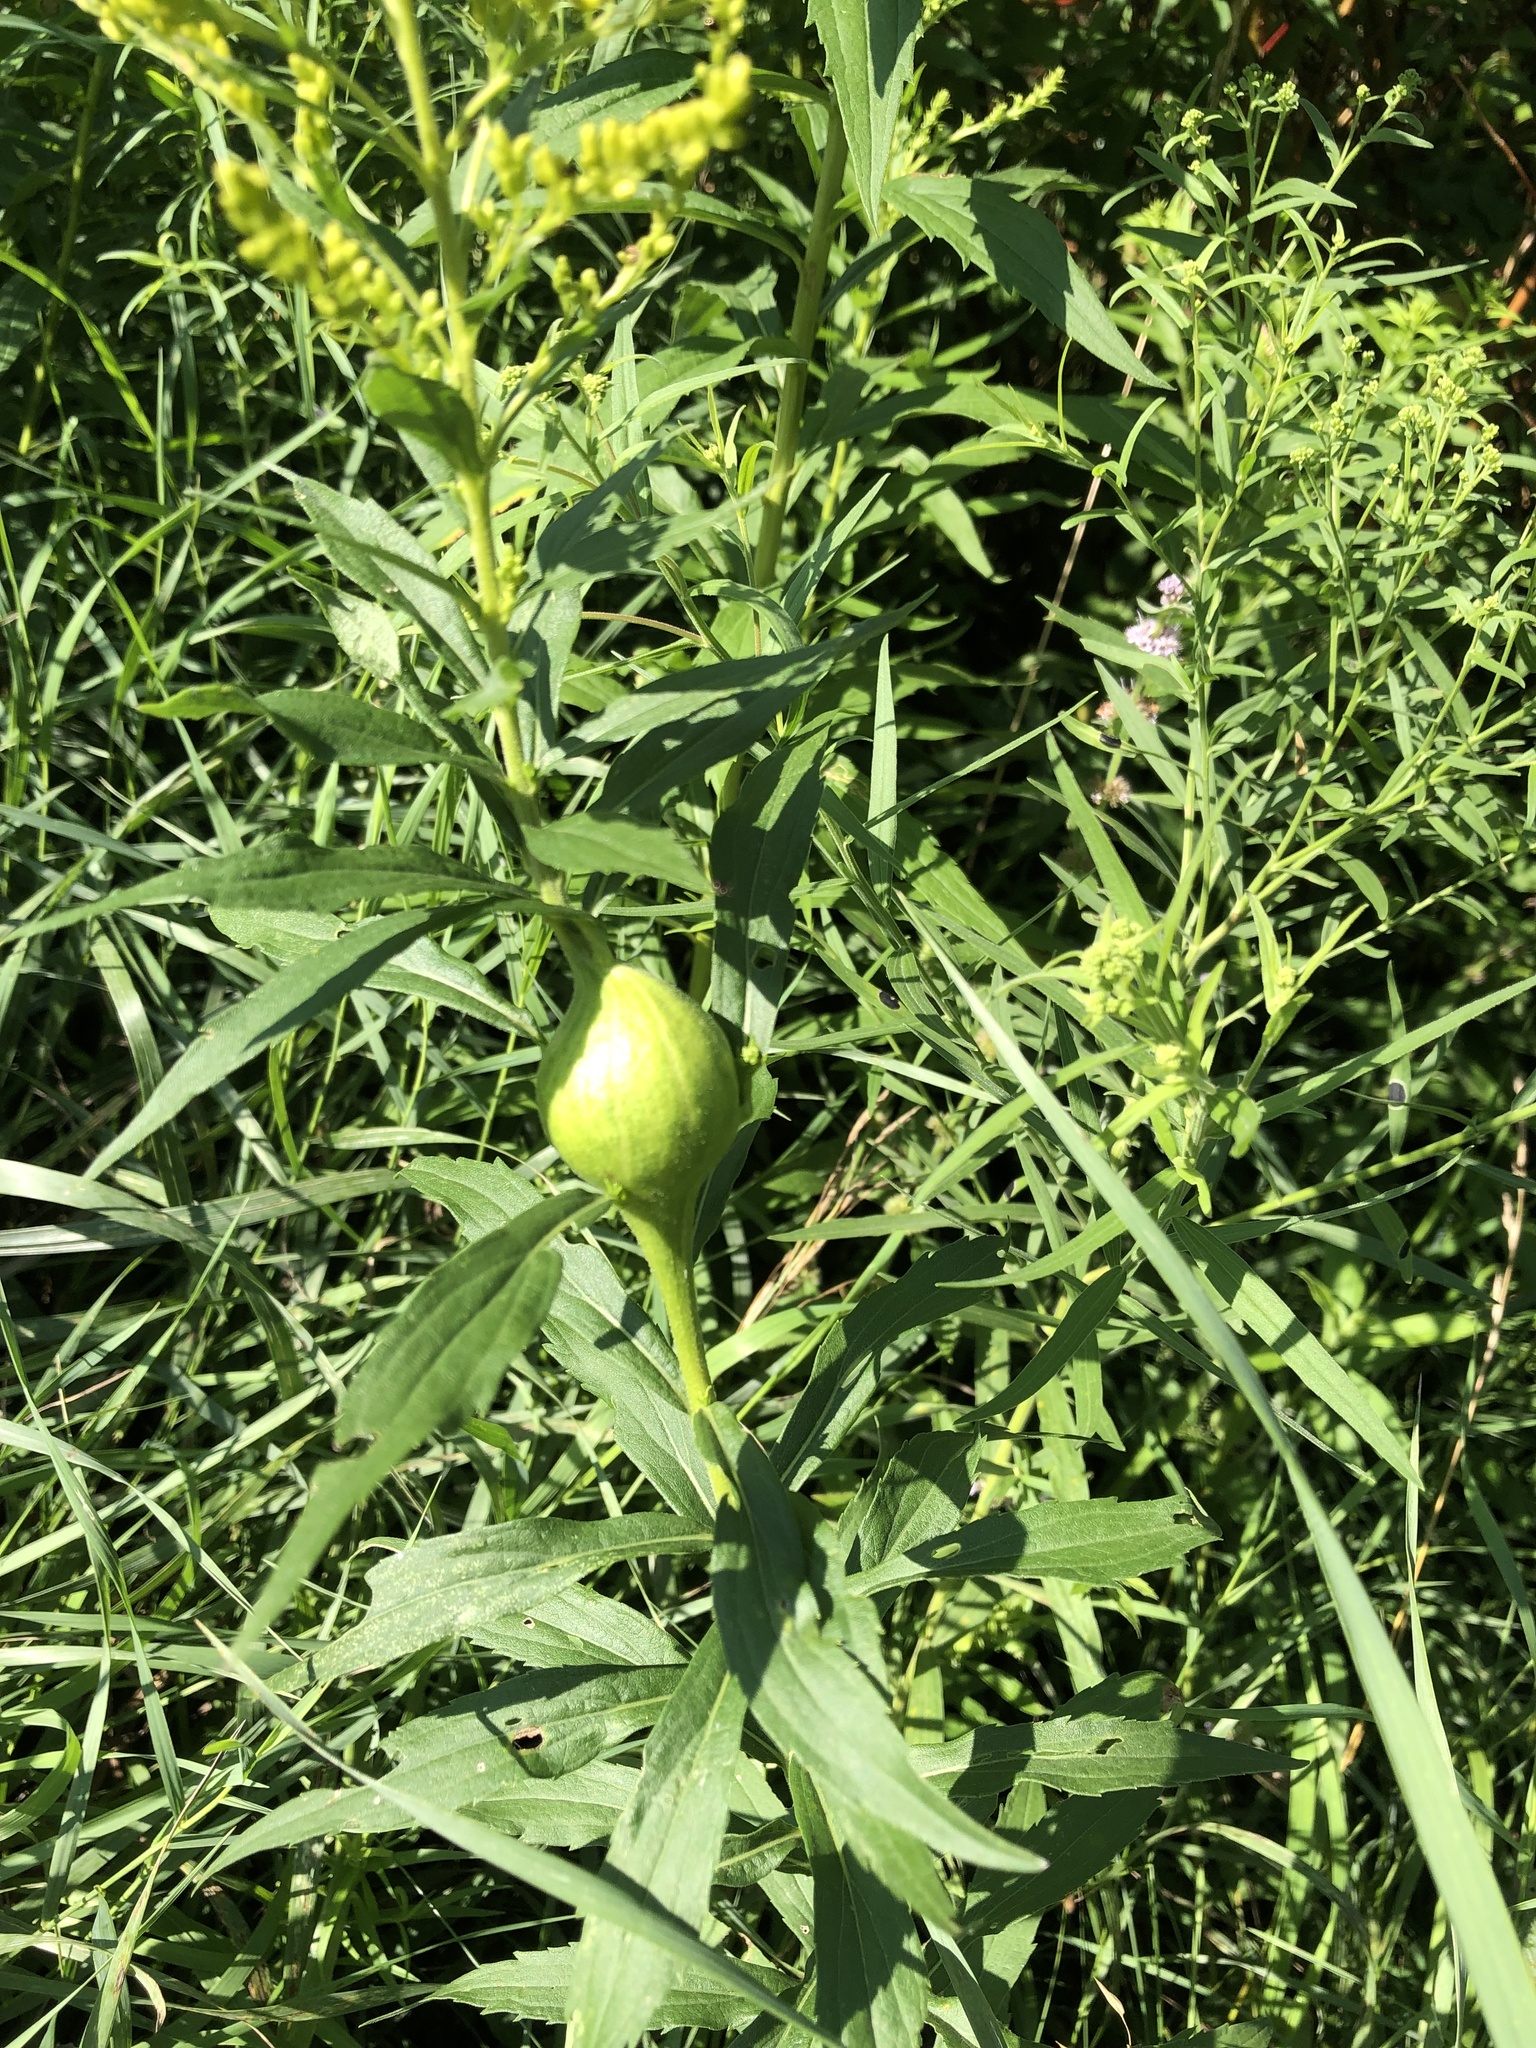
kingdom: Animalia
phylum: Arthropoda
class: Insecta
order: Diptera
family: Tephritidae
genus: Eurosta
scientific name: Eurosta solidaginis
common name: Goldenrod gall fly
